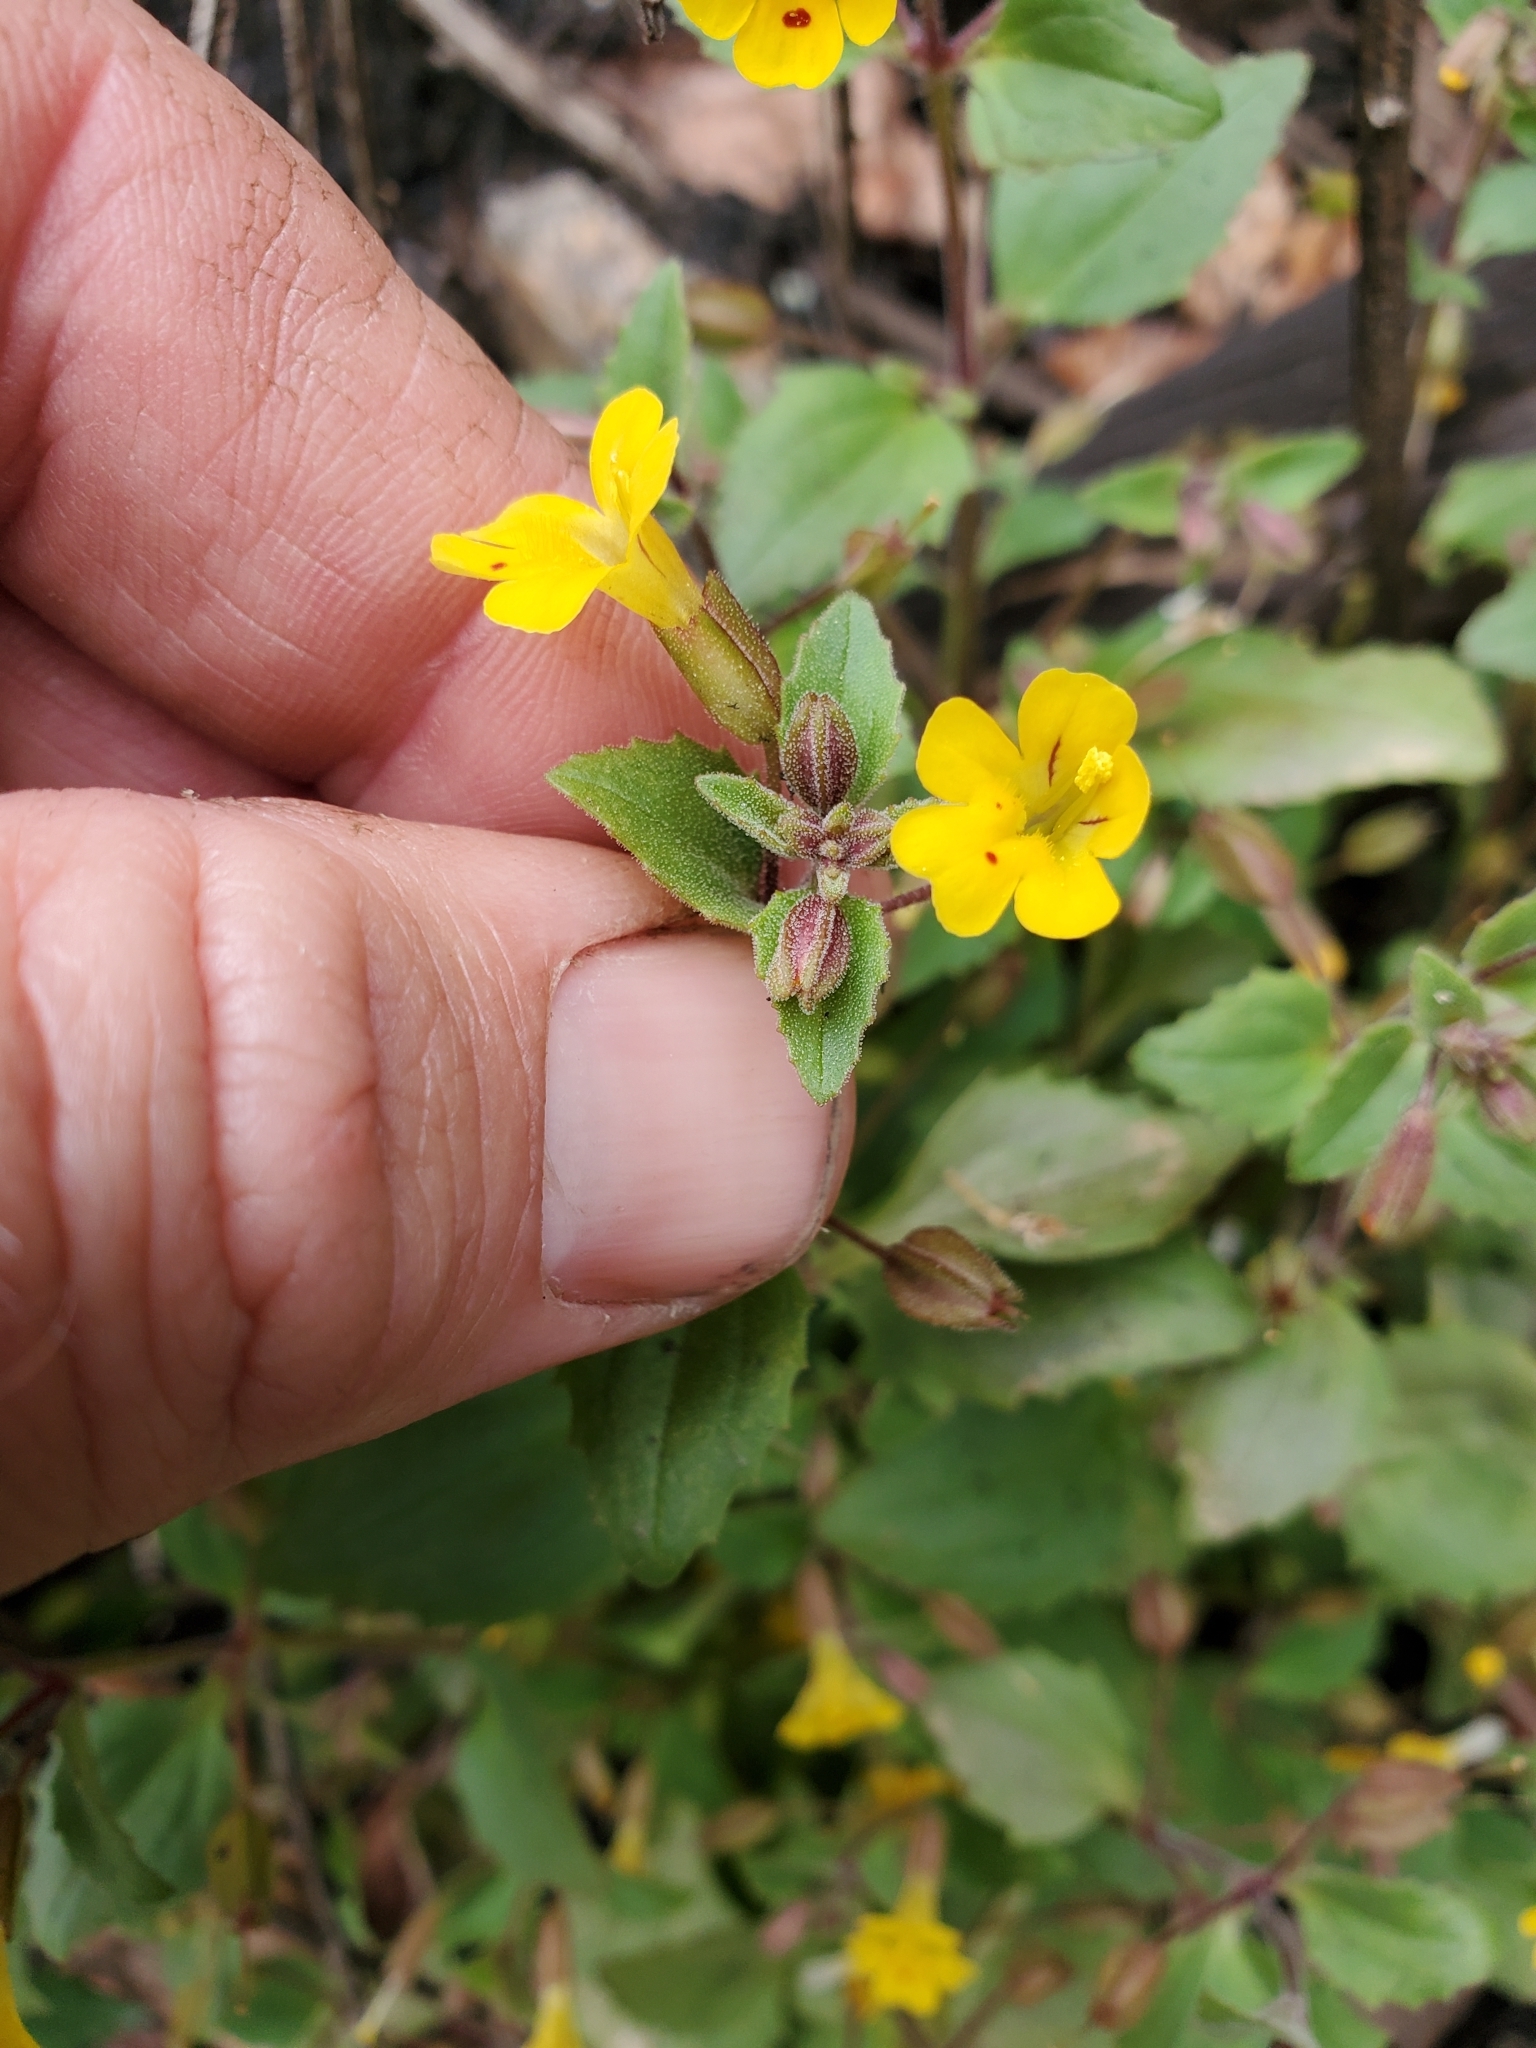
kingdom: Plantae
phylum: Tracheophyta
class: Magnoliopsida
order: Lamiales
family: Phrymaceae
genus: Erythranthe
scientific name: Erythranthe alsinoides
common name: Chickweed monkeyflower
